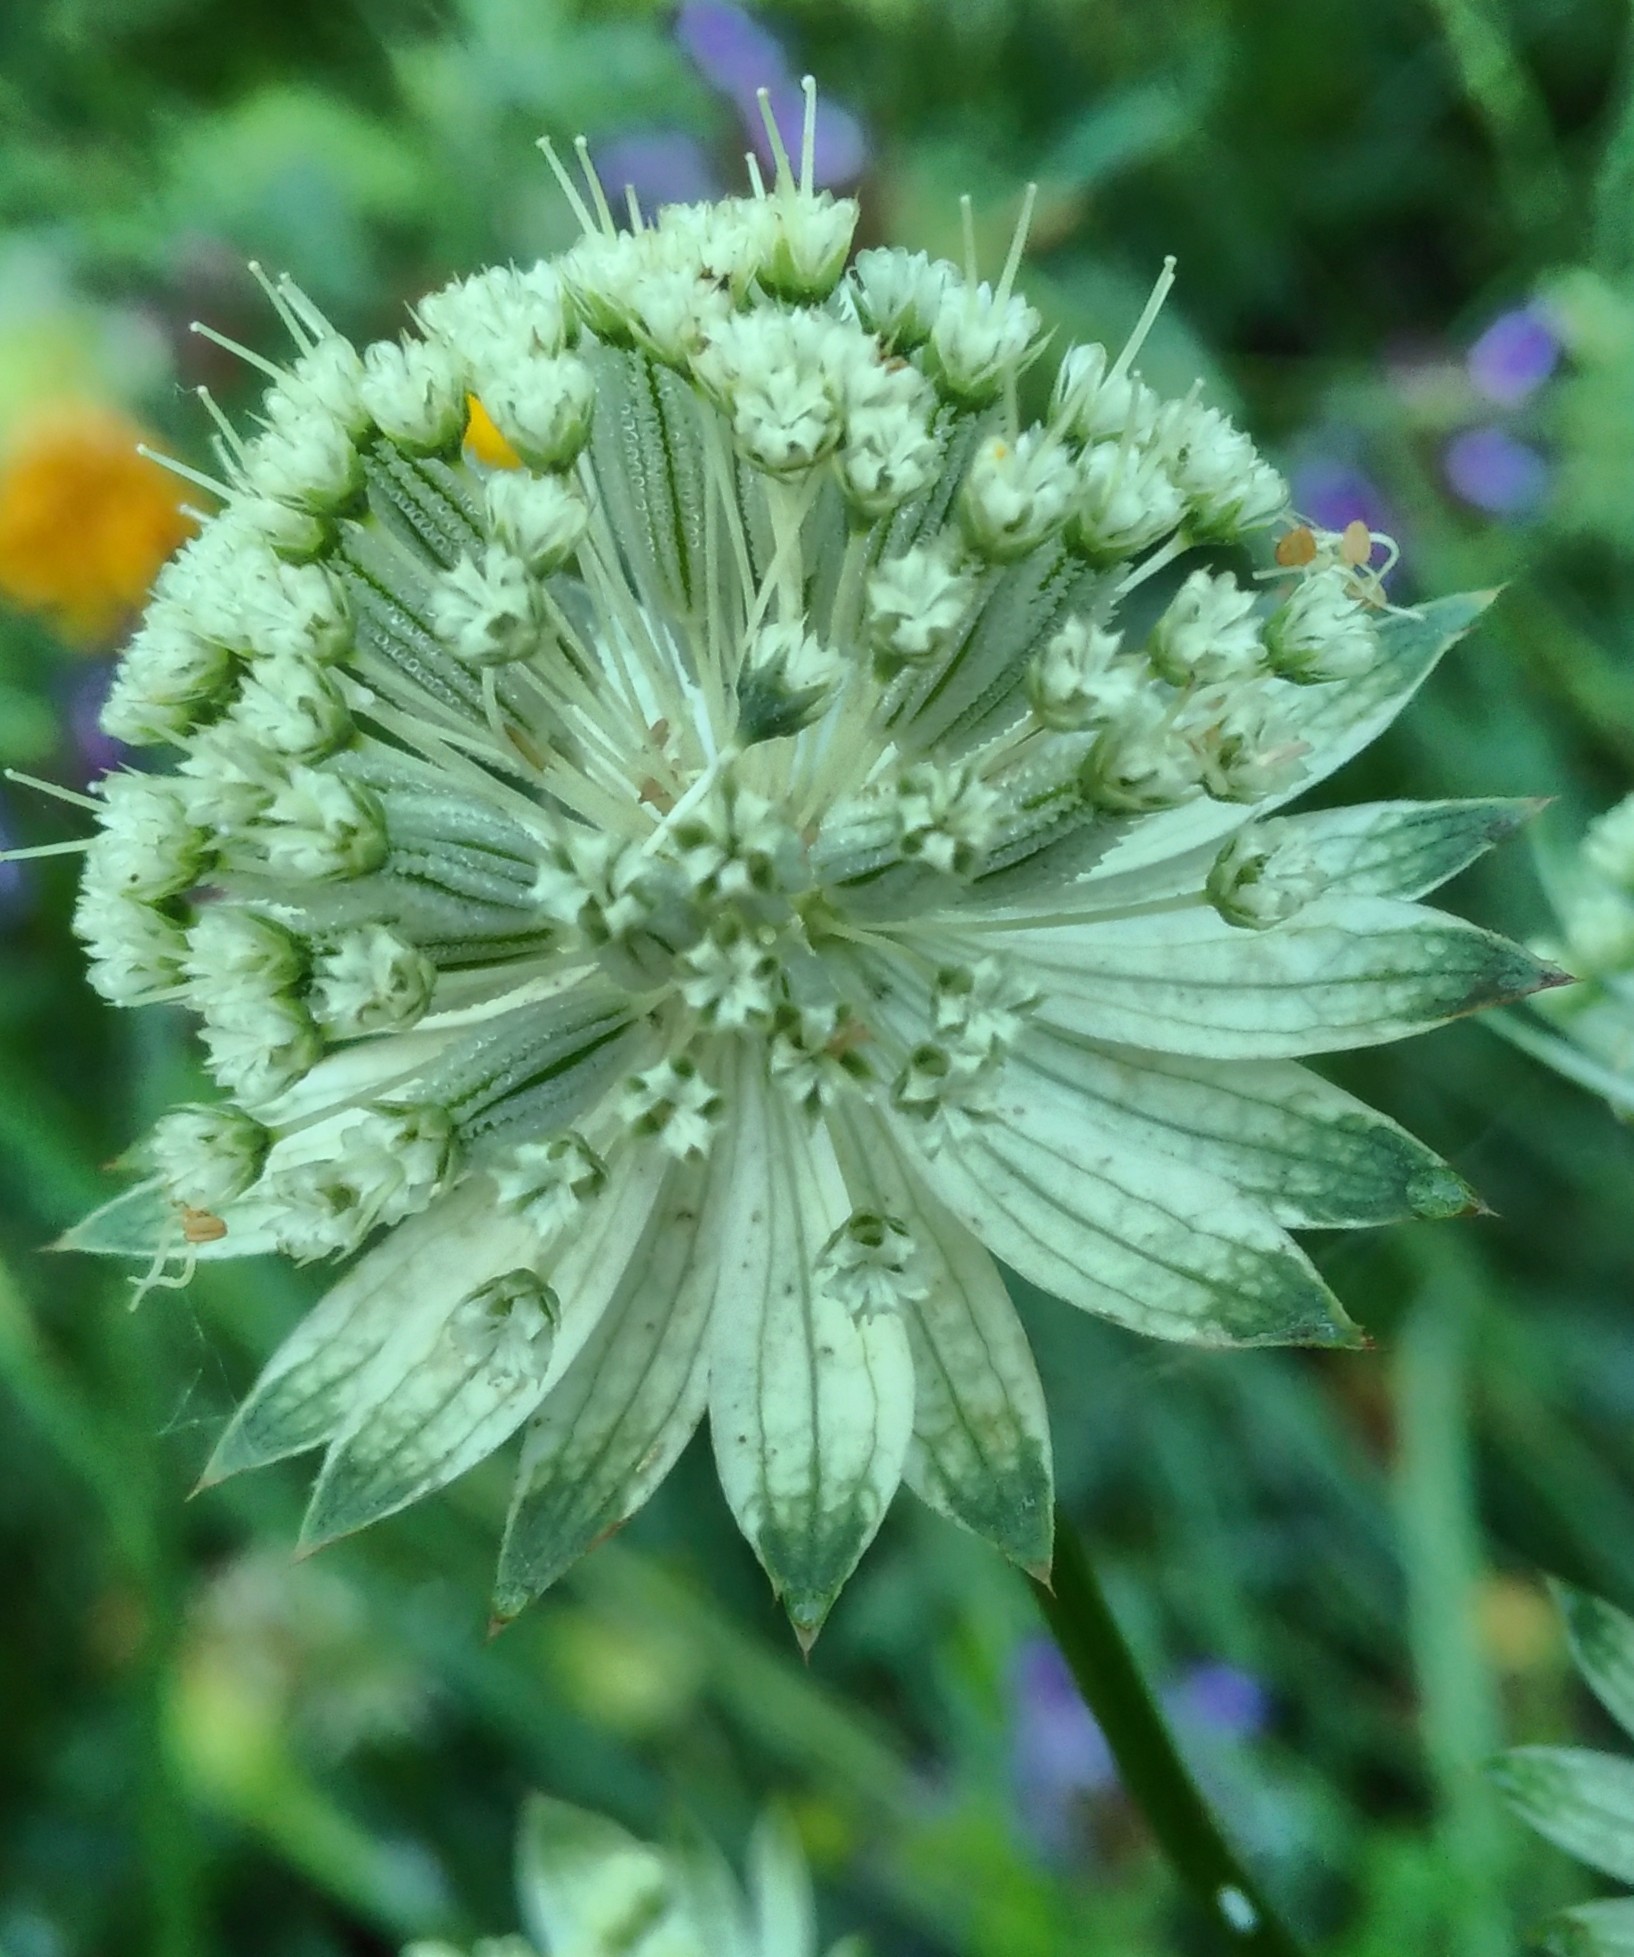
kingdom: Plantae
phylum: Tracheophyta
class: Magnoliopsida
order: Apiales
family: Apiaceae
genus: Astrantia
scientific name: Astrantia major
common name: Greater masterwort
